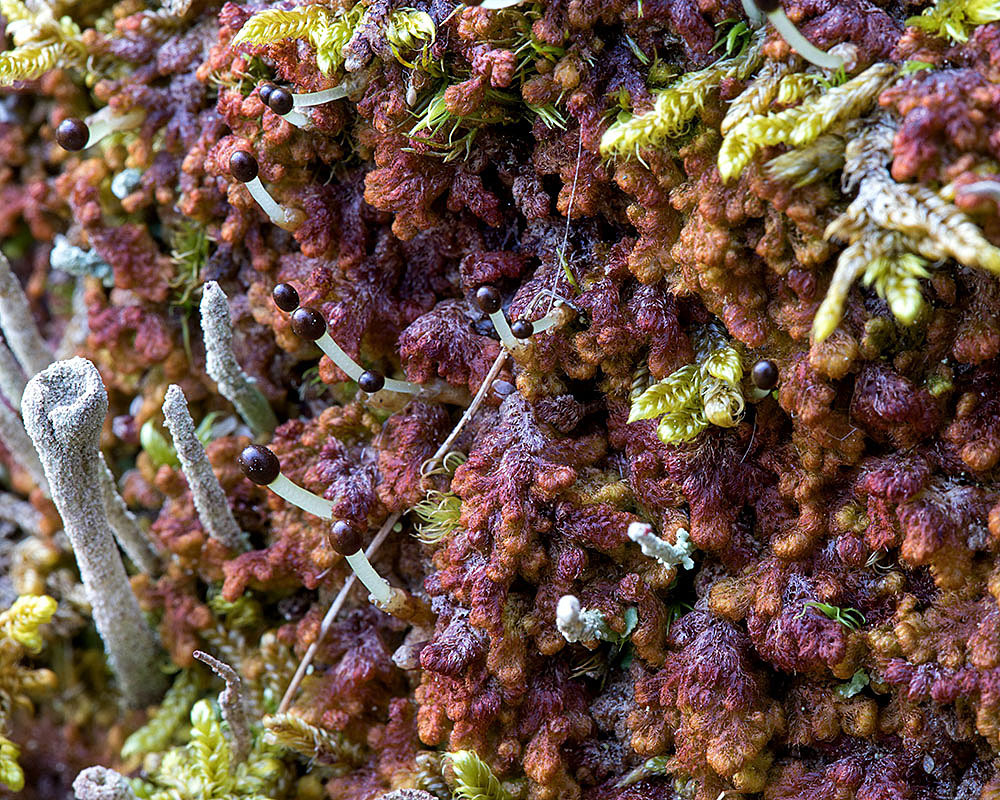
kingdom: Plantae
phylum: Marchantiophyta
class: Jungermanniopsida
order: Ptilidiales
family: Ptilidiaceae
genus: Ptilidium
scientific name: Ptilidium pulcherrimum
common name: Tree fringewort
